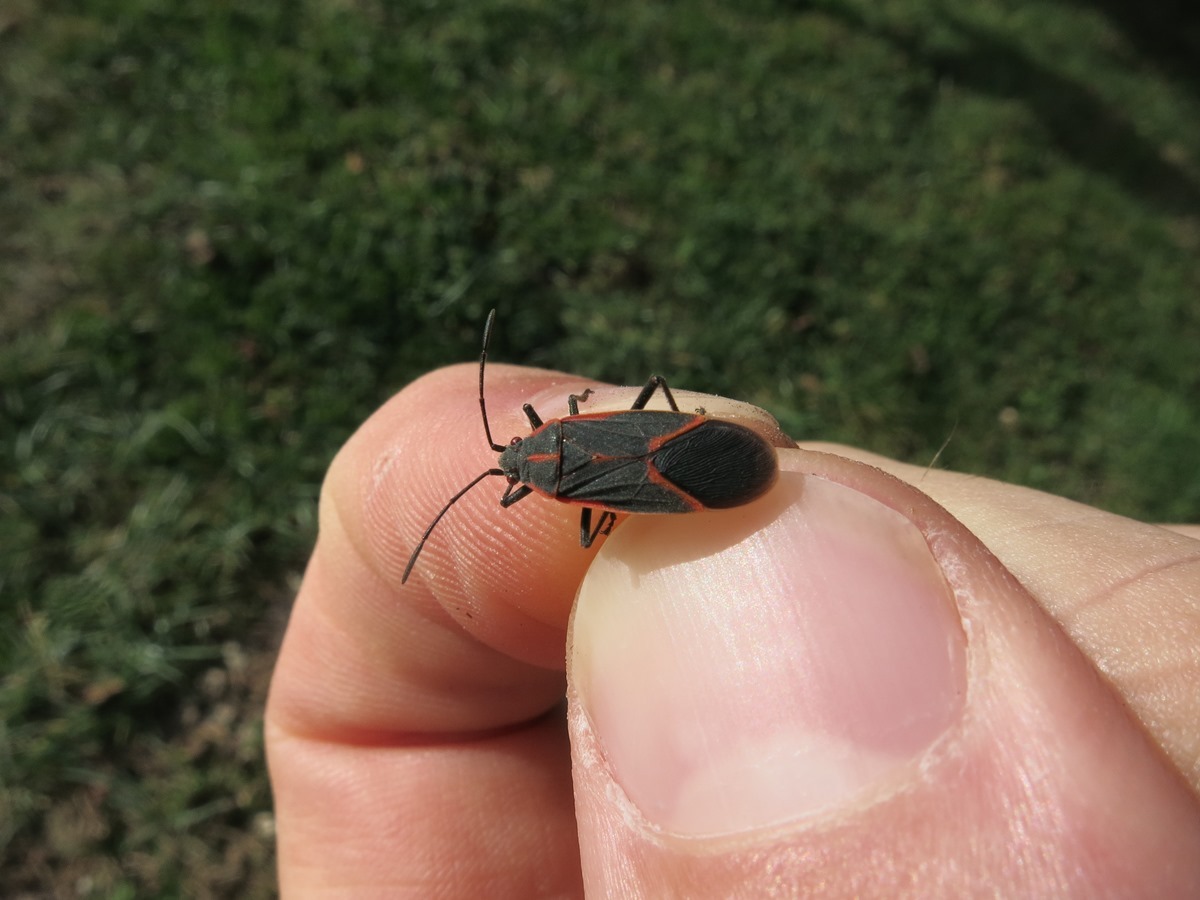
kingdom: Animalia
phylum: Arthropoda
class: Insecta
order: Hemiptera
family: Rhopalidae
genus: Boisea
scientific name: Boisea trivittata
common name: Boxelder bug
